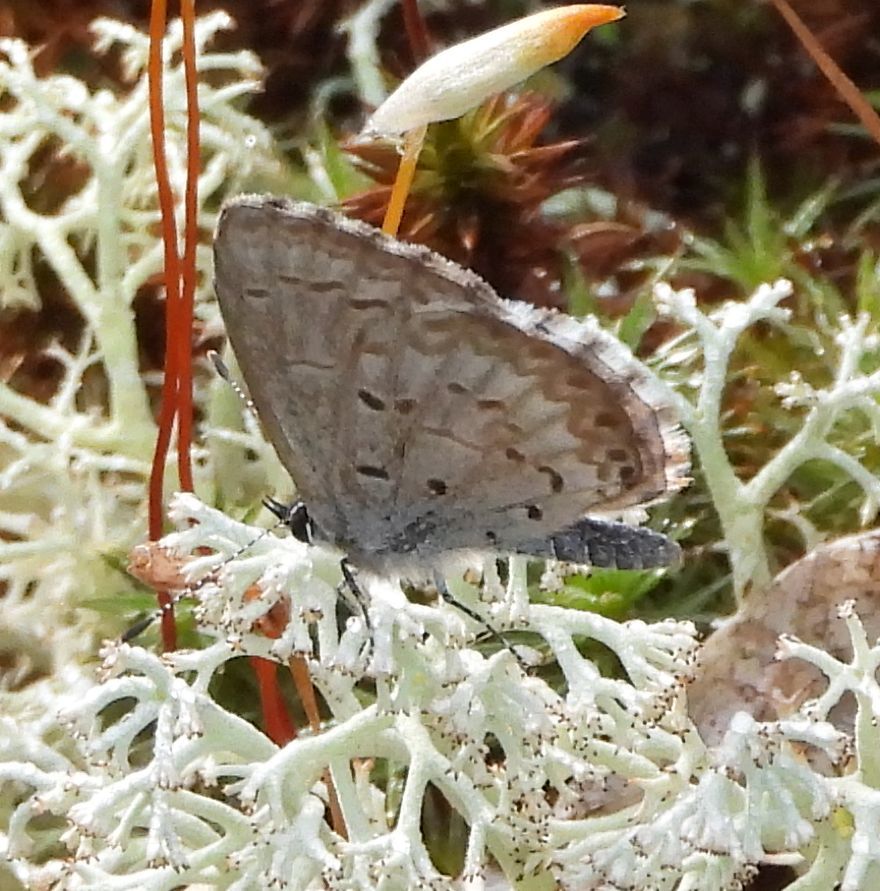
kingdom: Animalia
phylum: Arthropoda
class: Insecta
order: Lepidoptera
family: Lycaenidae
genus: Celastrina
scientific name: Celastrina lucia
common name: Lucia azure
